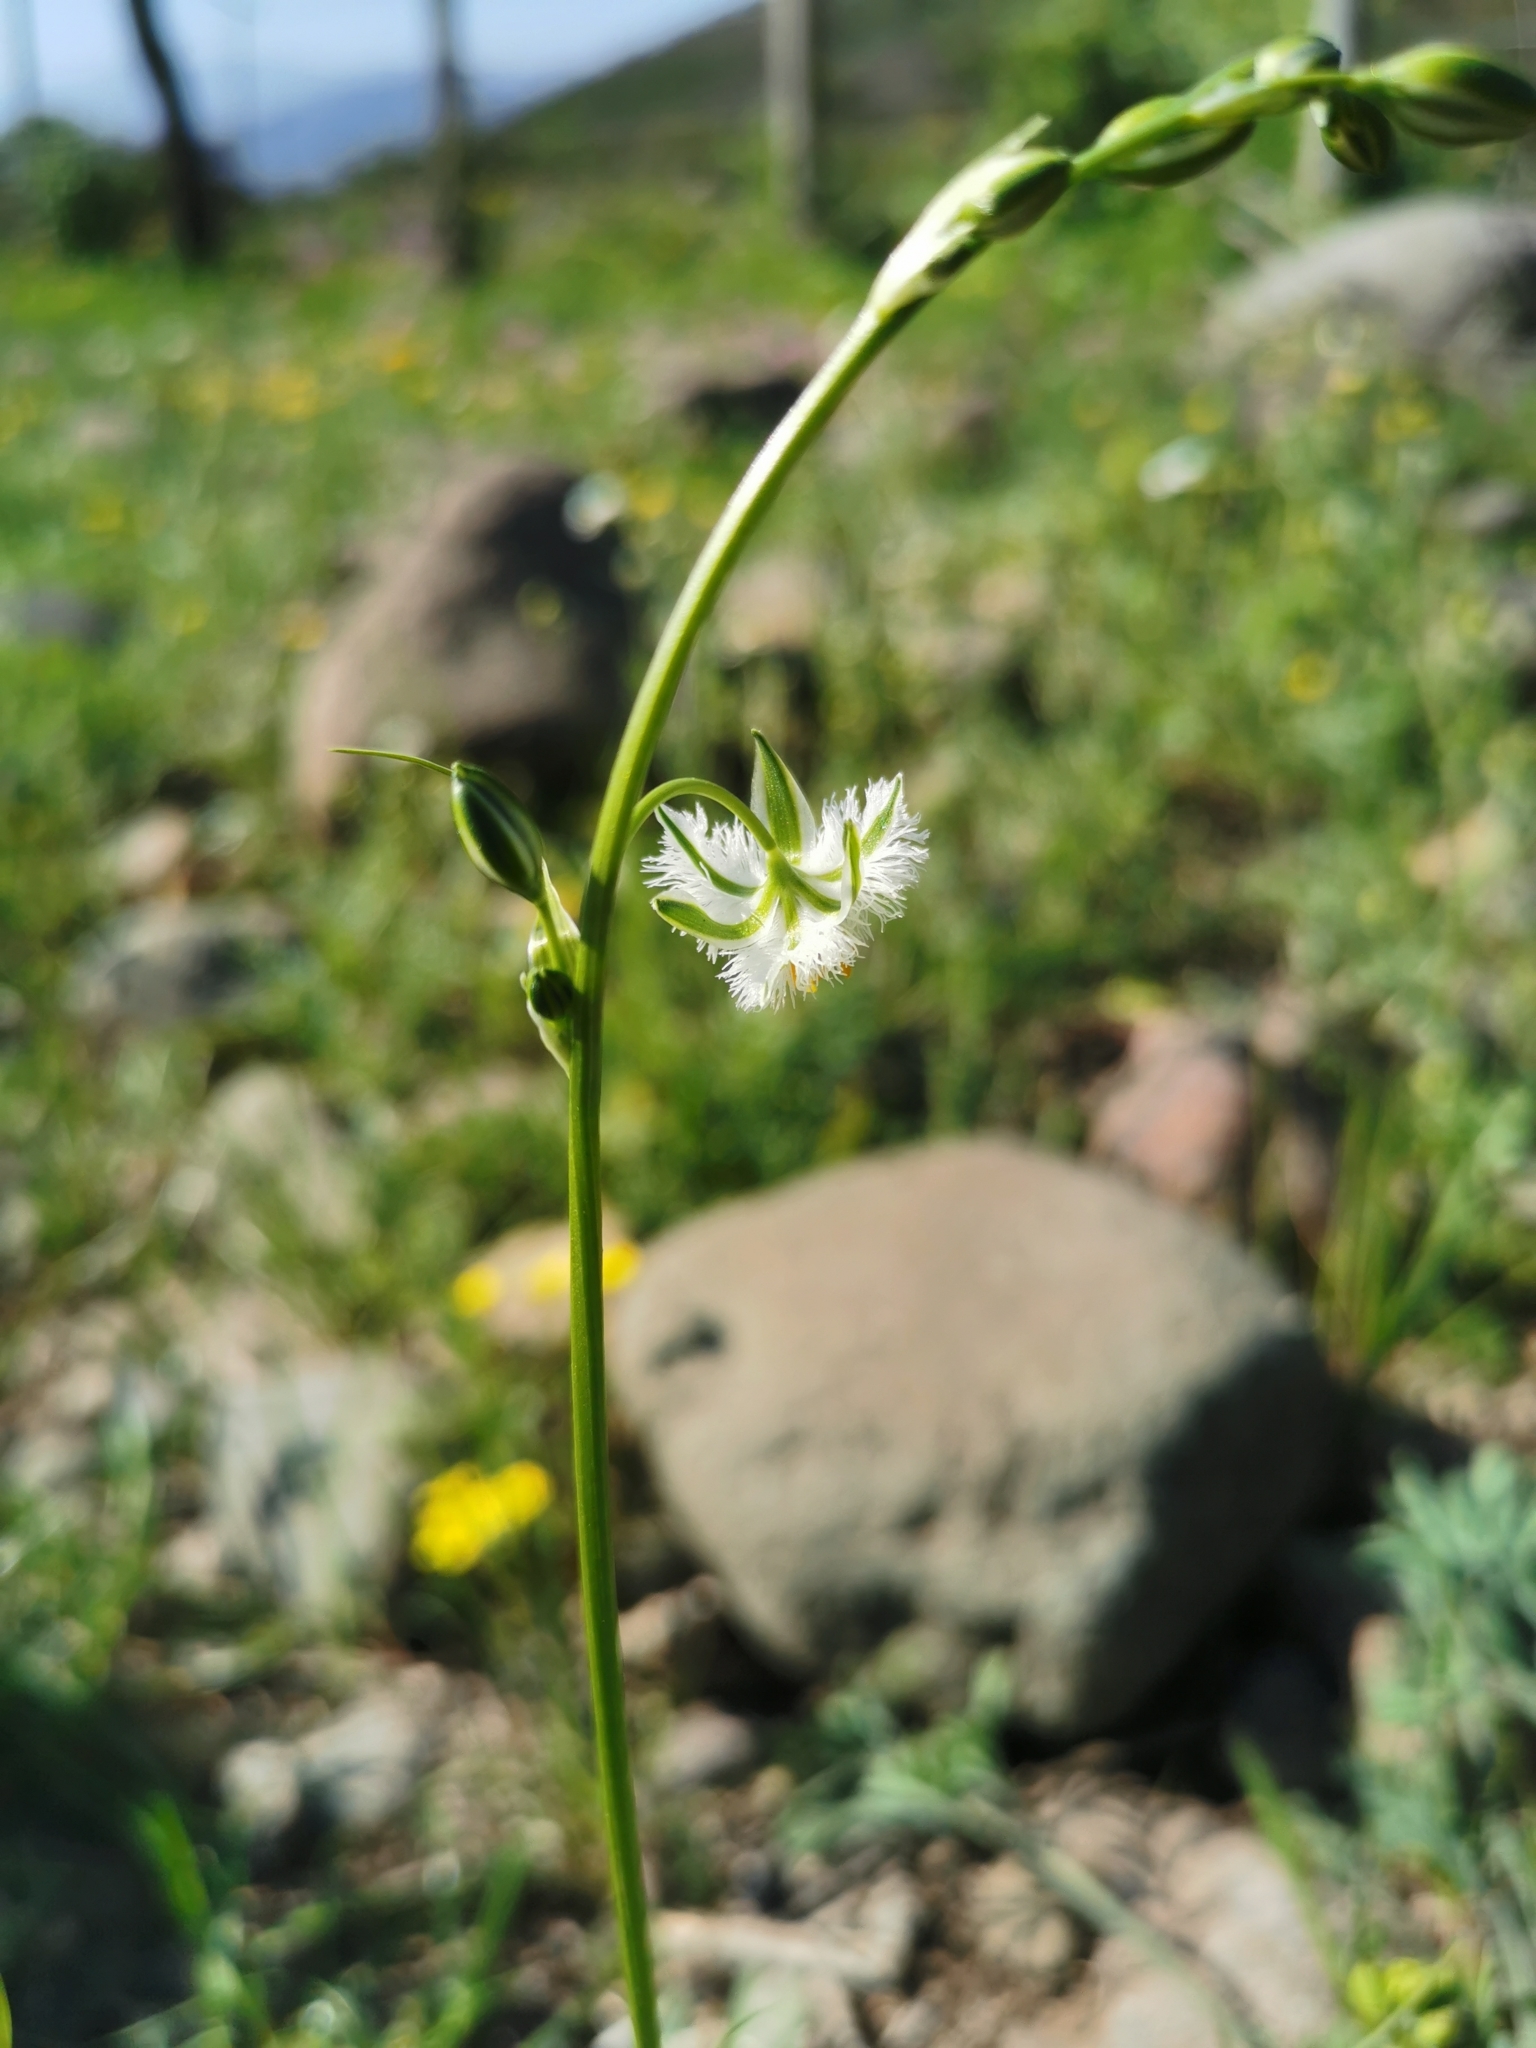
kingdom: Plantae
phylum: Tracheophyta
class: Liliopsida
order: Asparagales
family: Asparagaceae
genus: Trichopetalum
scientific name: Trichopetalum plumosum
